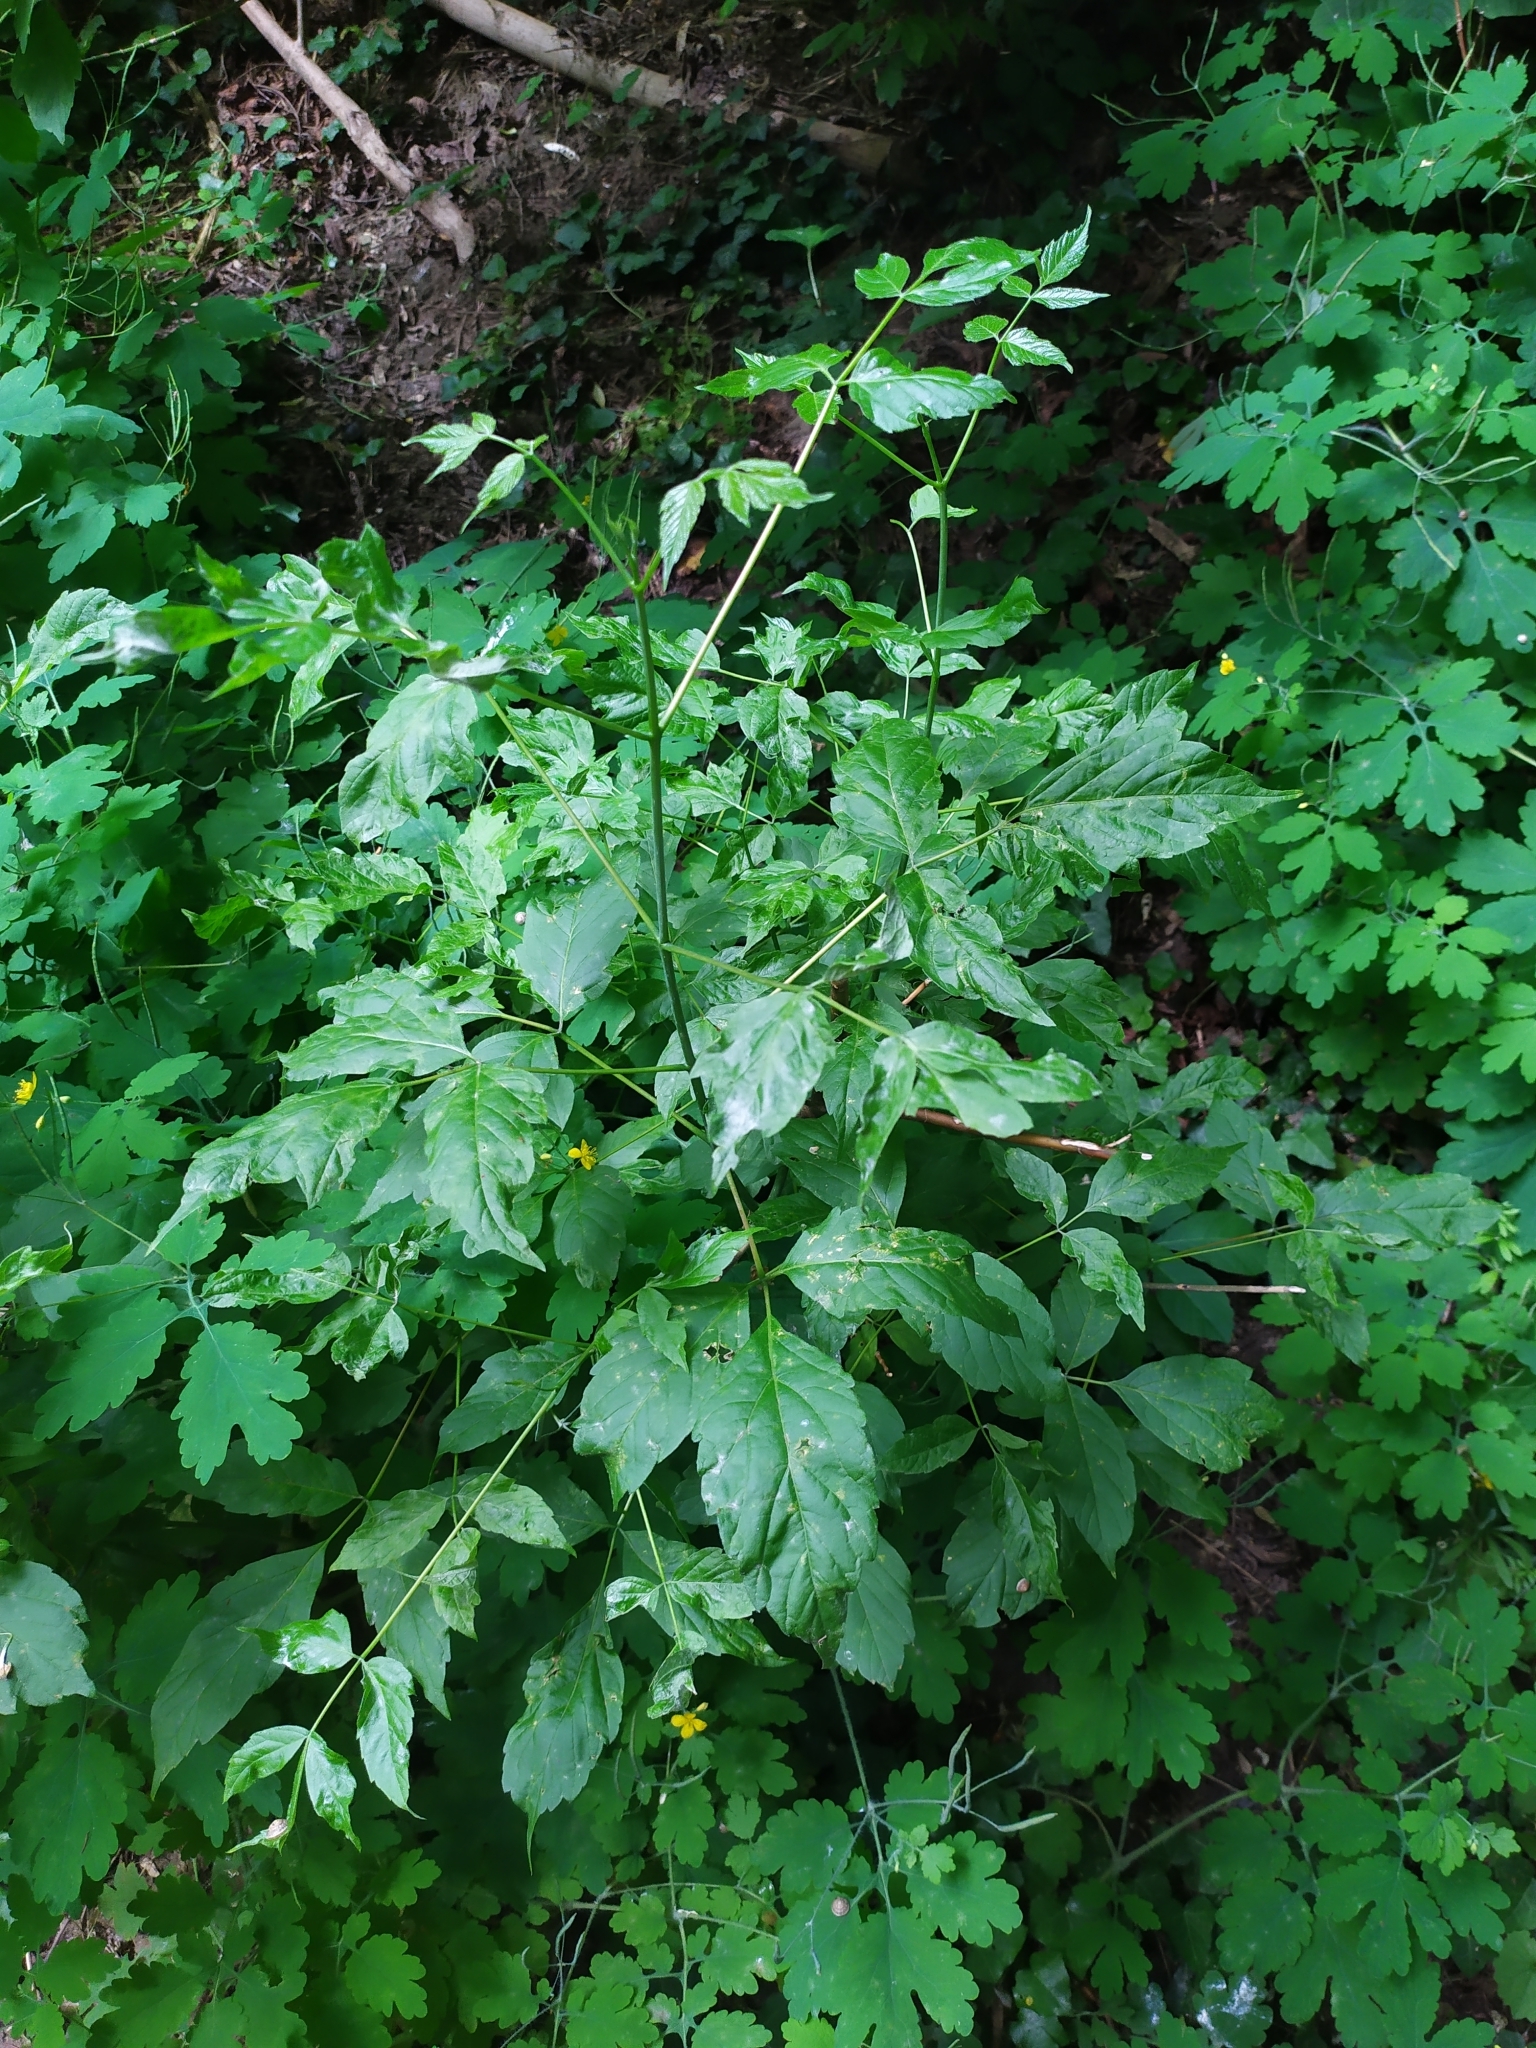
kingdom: Plantae
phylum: Tracheophyta
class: Magnoliopsida
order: Sapindales
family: Sapindaceae
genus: Acer
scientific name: Acer negundo
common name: Ashleaf maple
